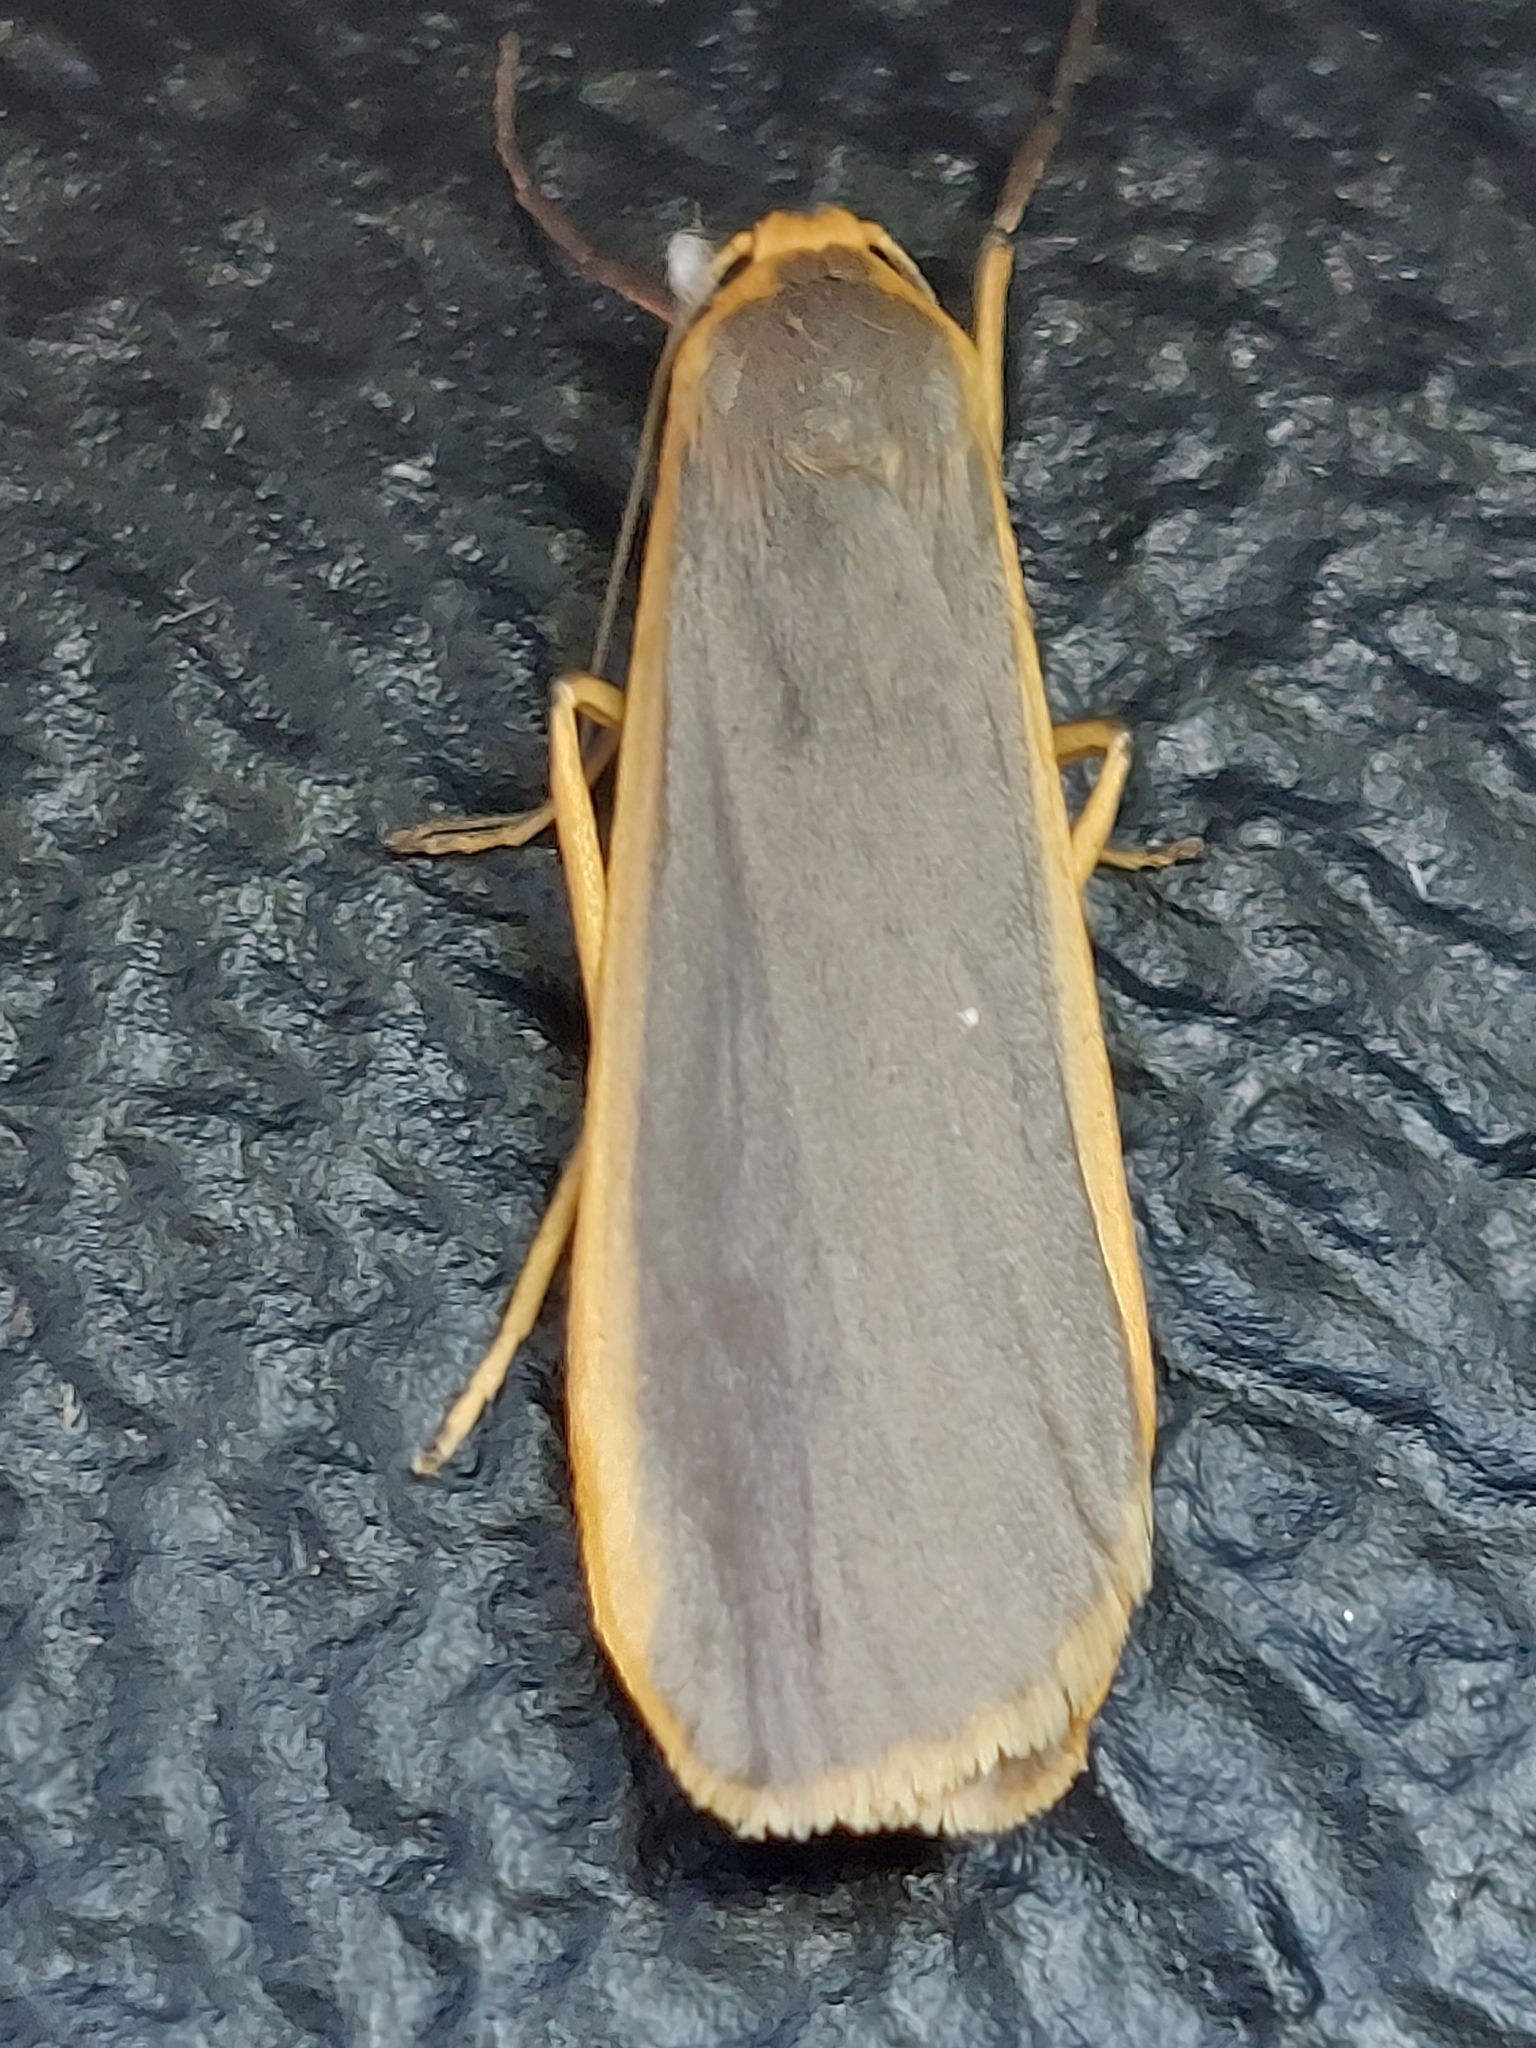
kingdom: Animalia
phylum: Arthropoda
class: Insecta
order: Lepidoptera
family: Erebidae
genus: Nyea
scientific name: Nyea lurideola
